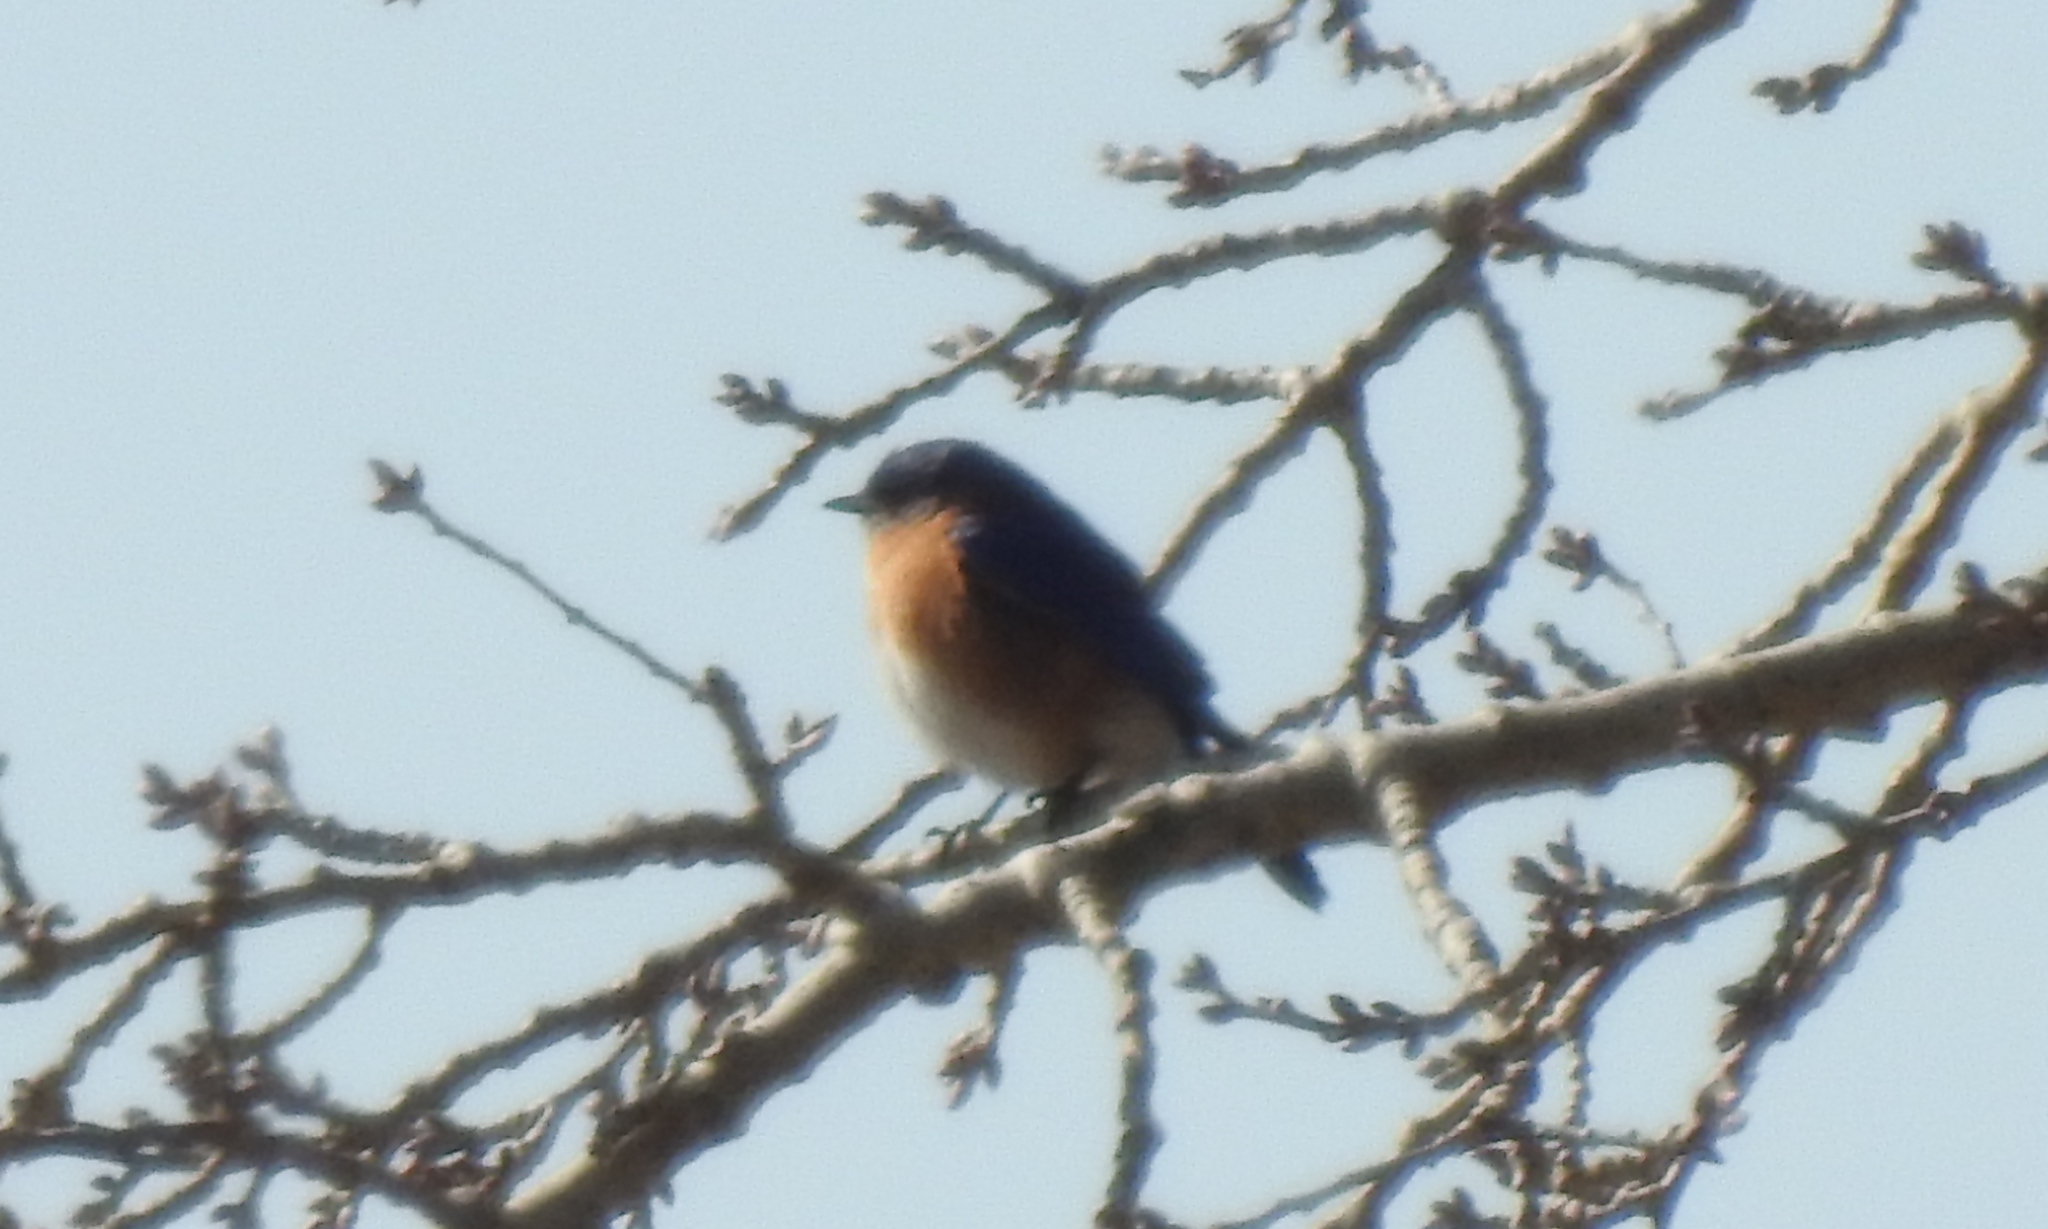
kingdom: Animalia
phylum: Chordata
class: Aves
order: Passeriformes
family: Turdidae
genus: Sialia
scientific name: Sialia sialis
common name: Eastern bluebird
